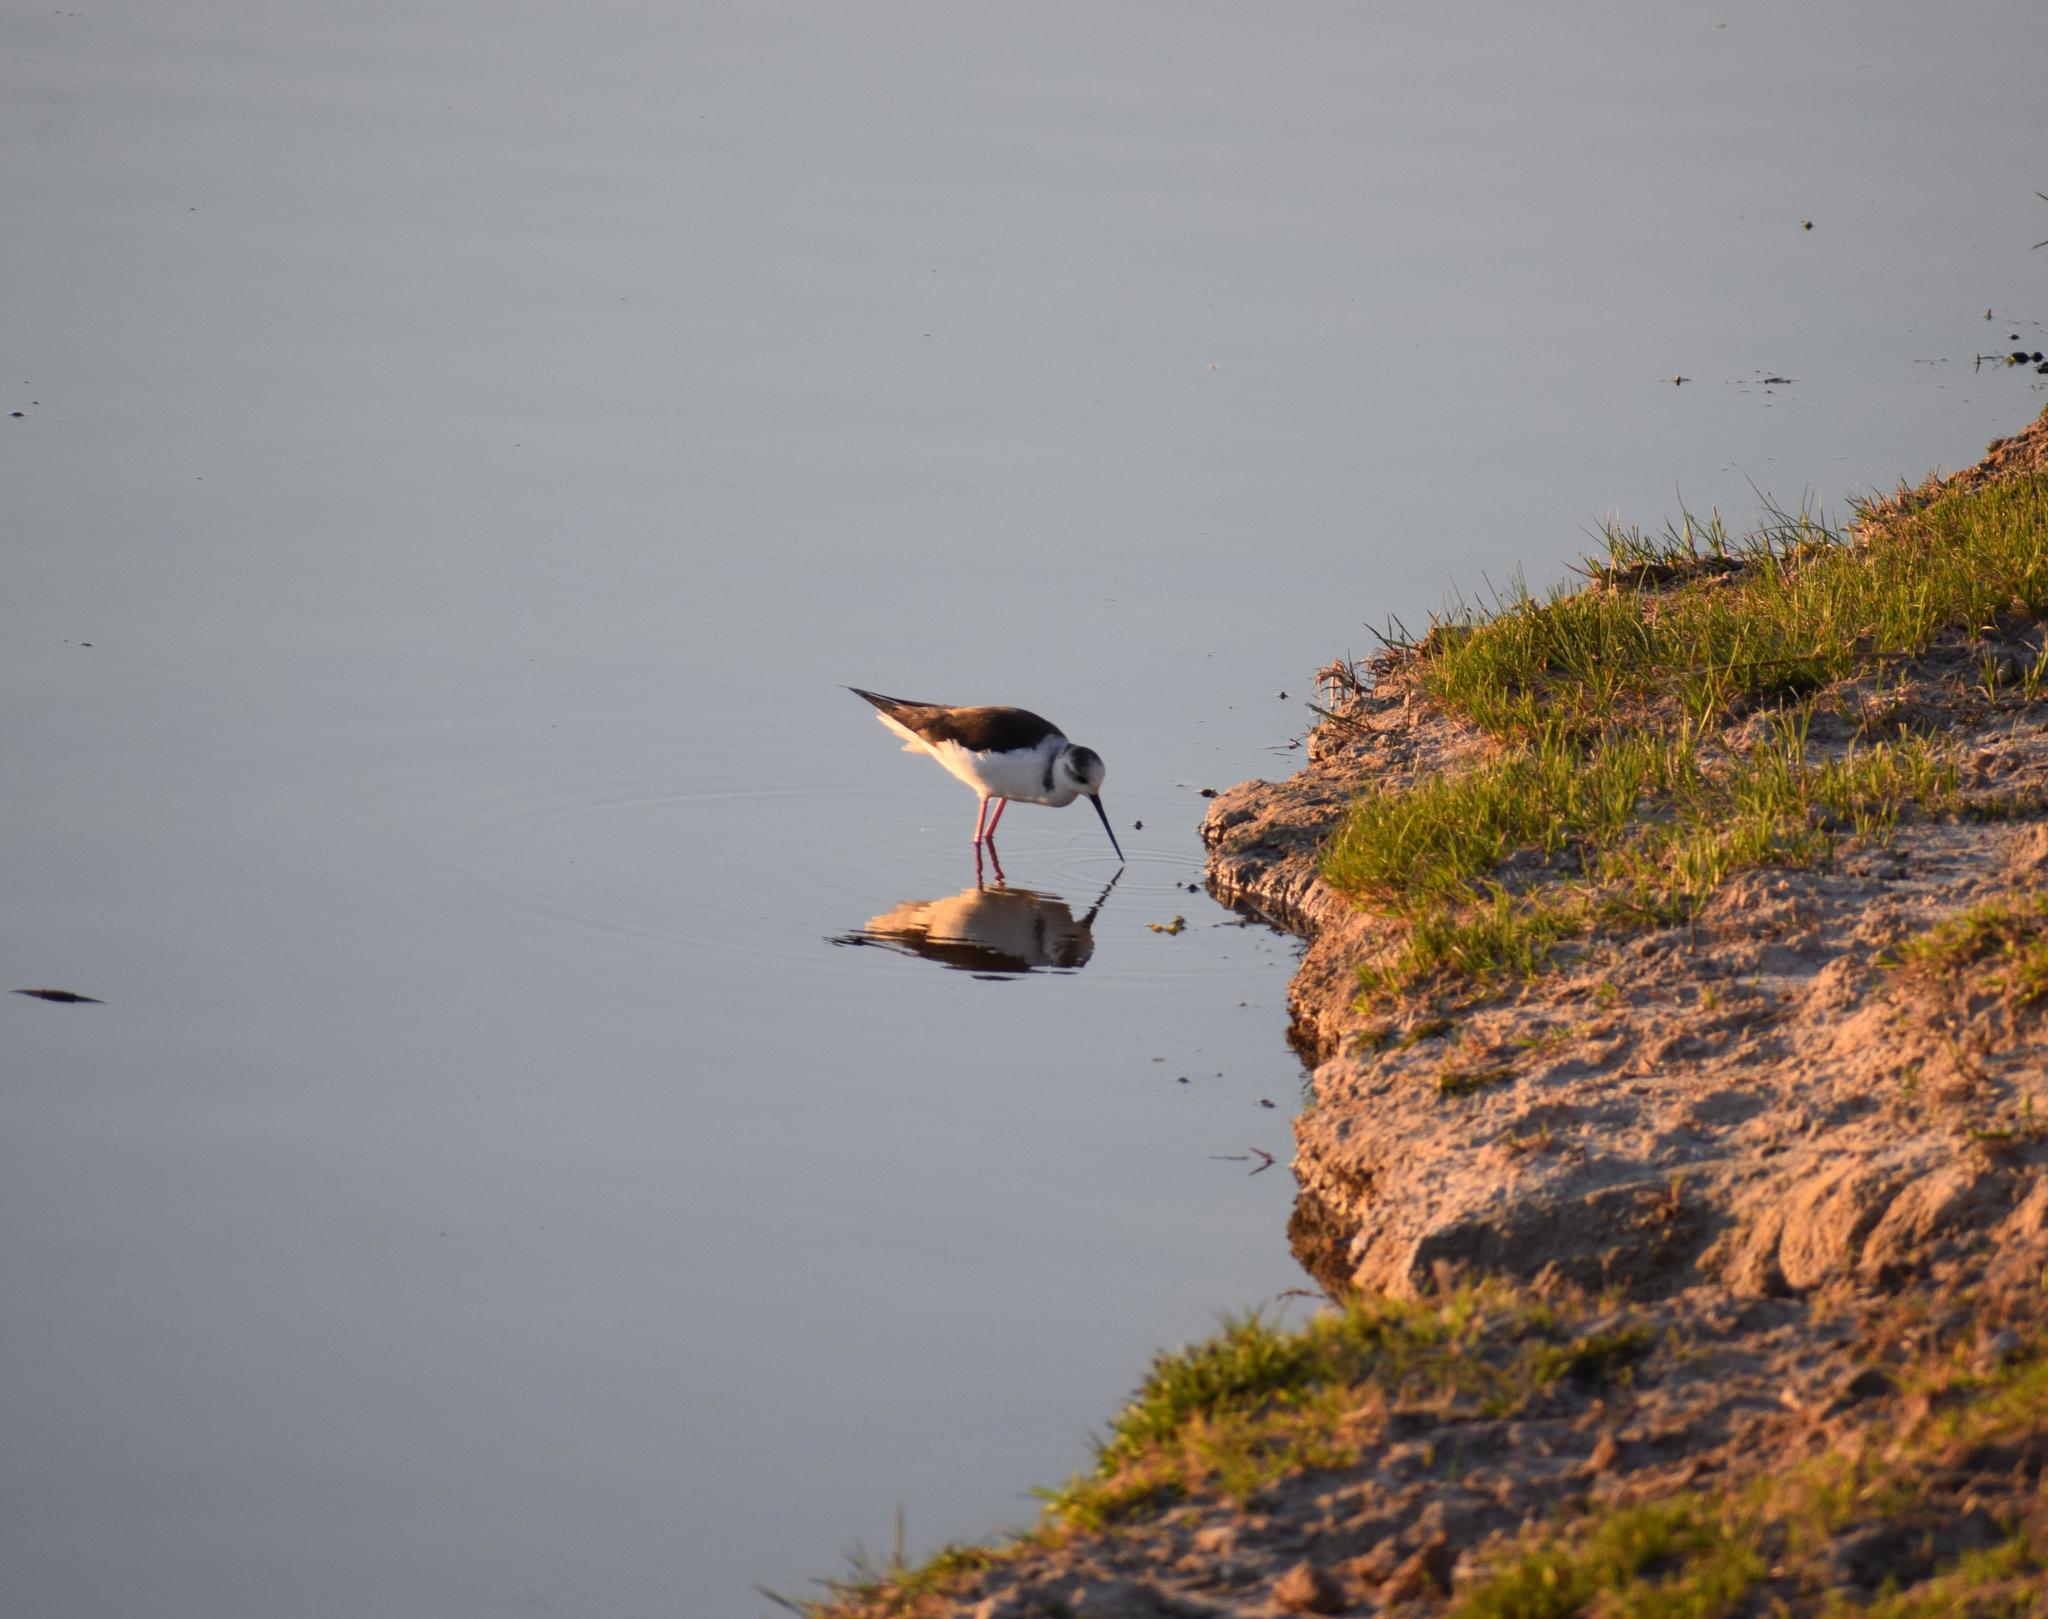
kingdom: Animalia
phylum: Chordata
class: Aves
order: Charadriiformes
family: Recurvirostridae
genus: Himantopus
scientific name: Himantopus himantopus
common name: Black-winged stilt
